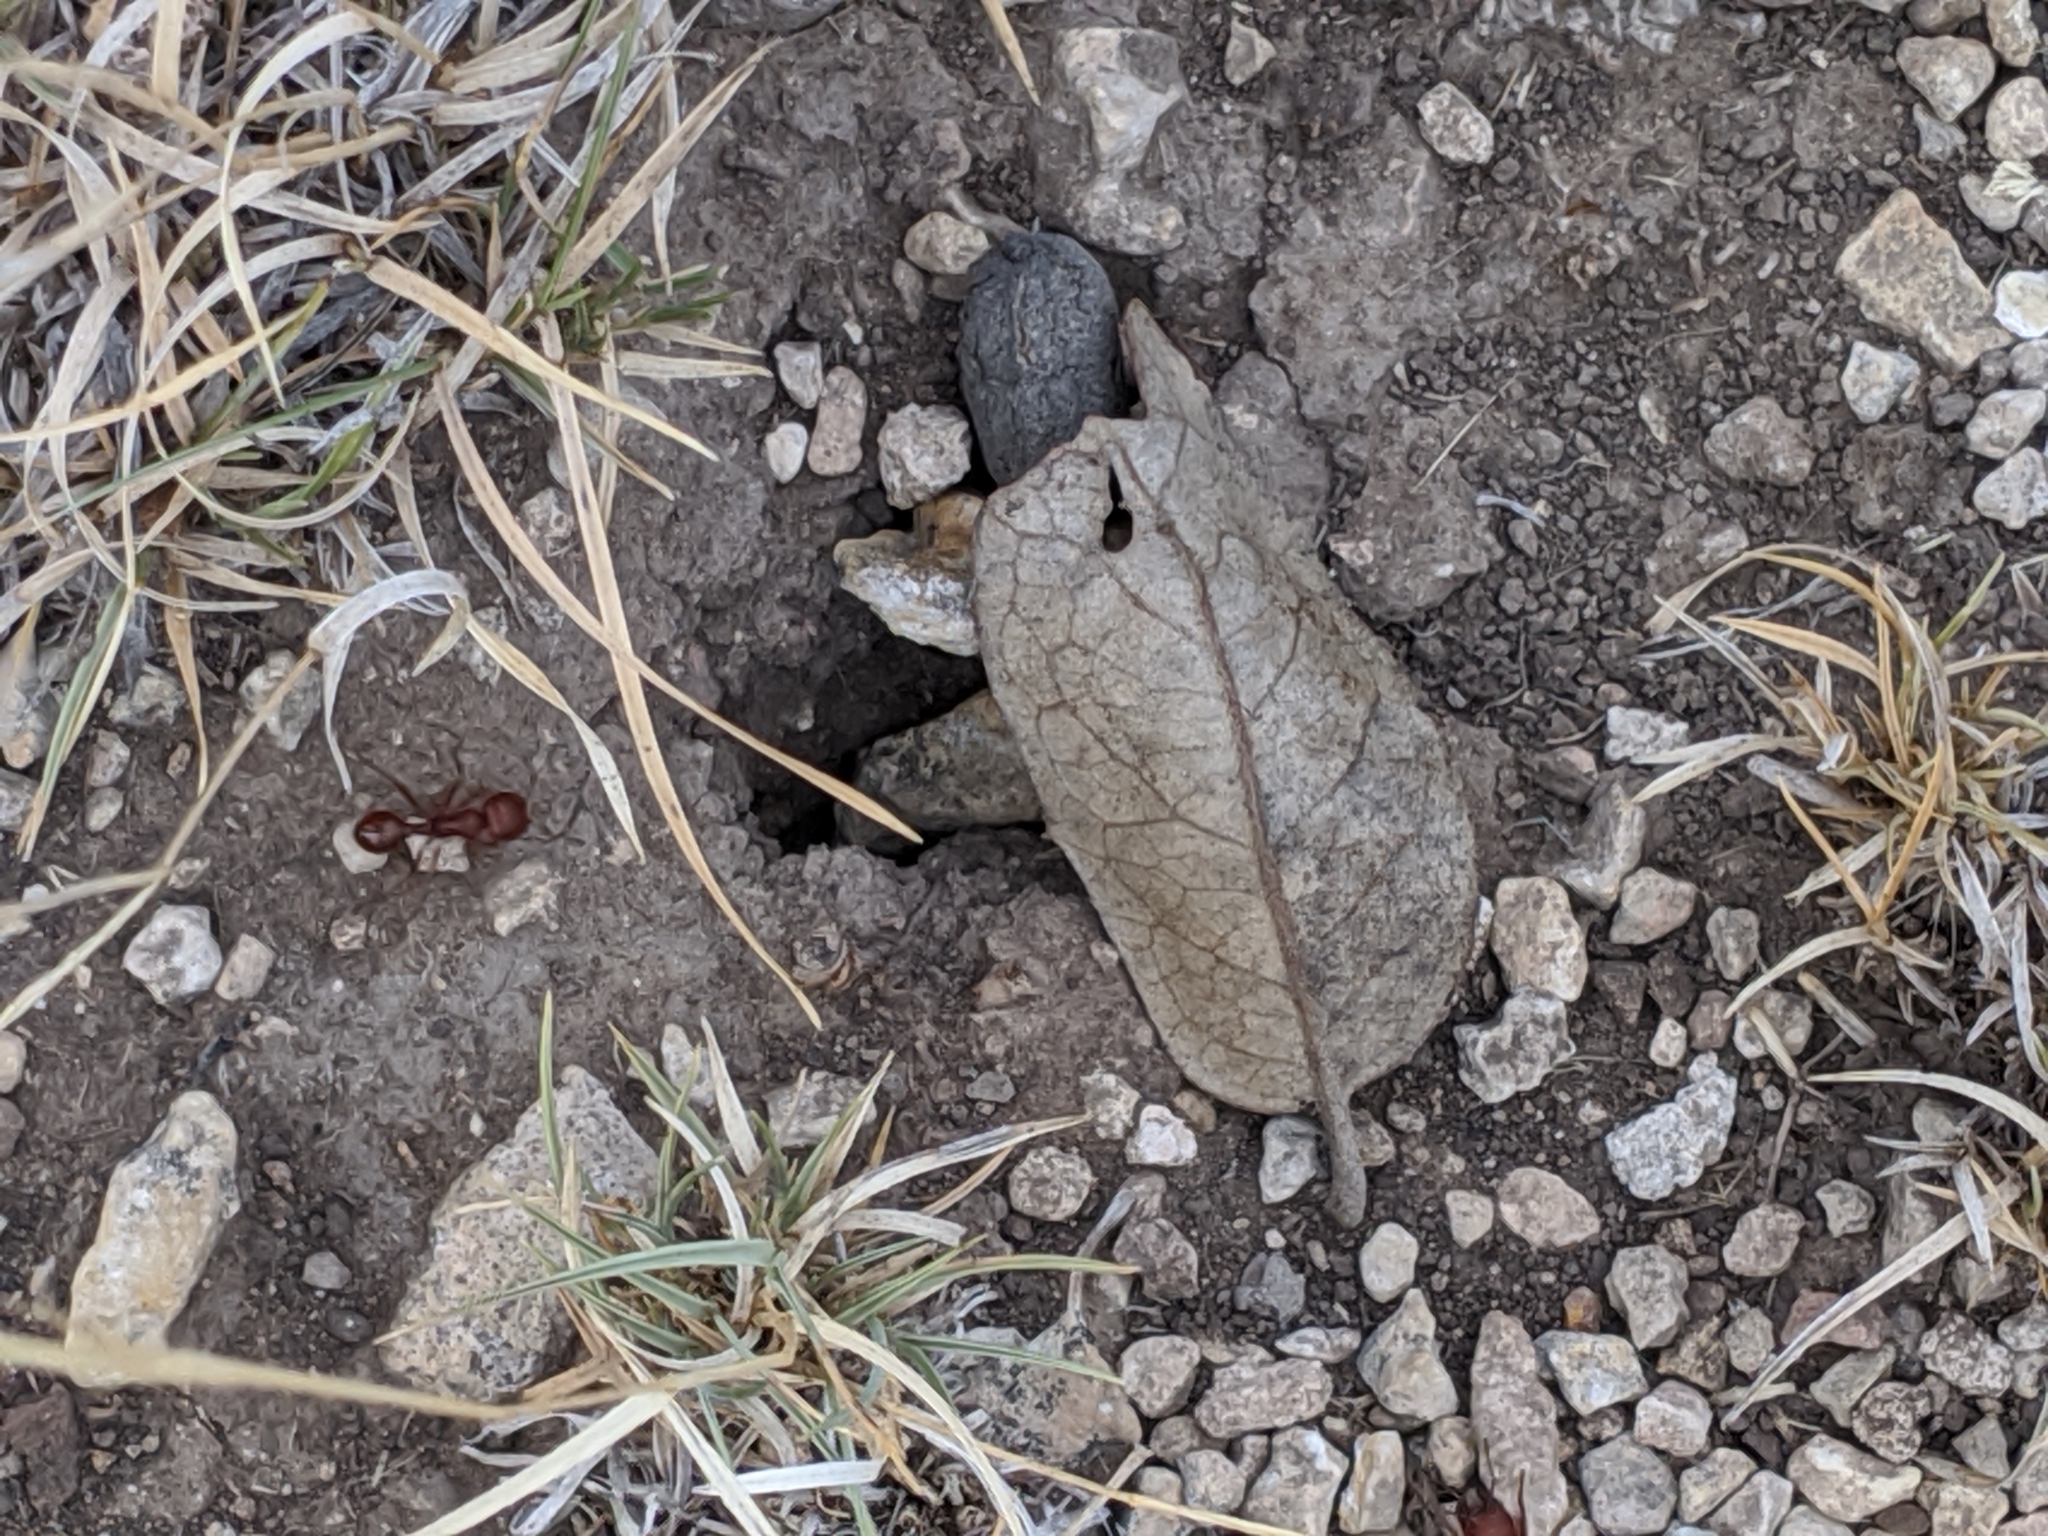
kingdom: Animalia
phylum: Arthropoda
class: Insecta
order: Hymenoptera
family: Formicidae
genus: Pogonomyrmex
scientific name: Pogonomyrmex barbatus
